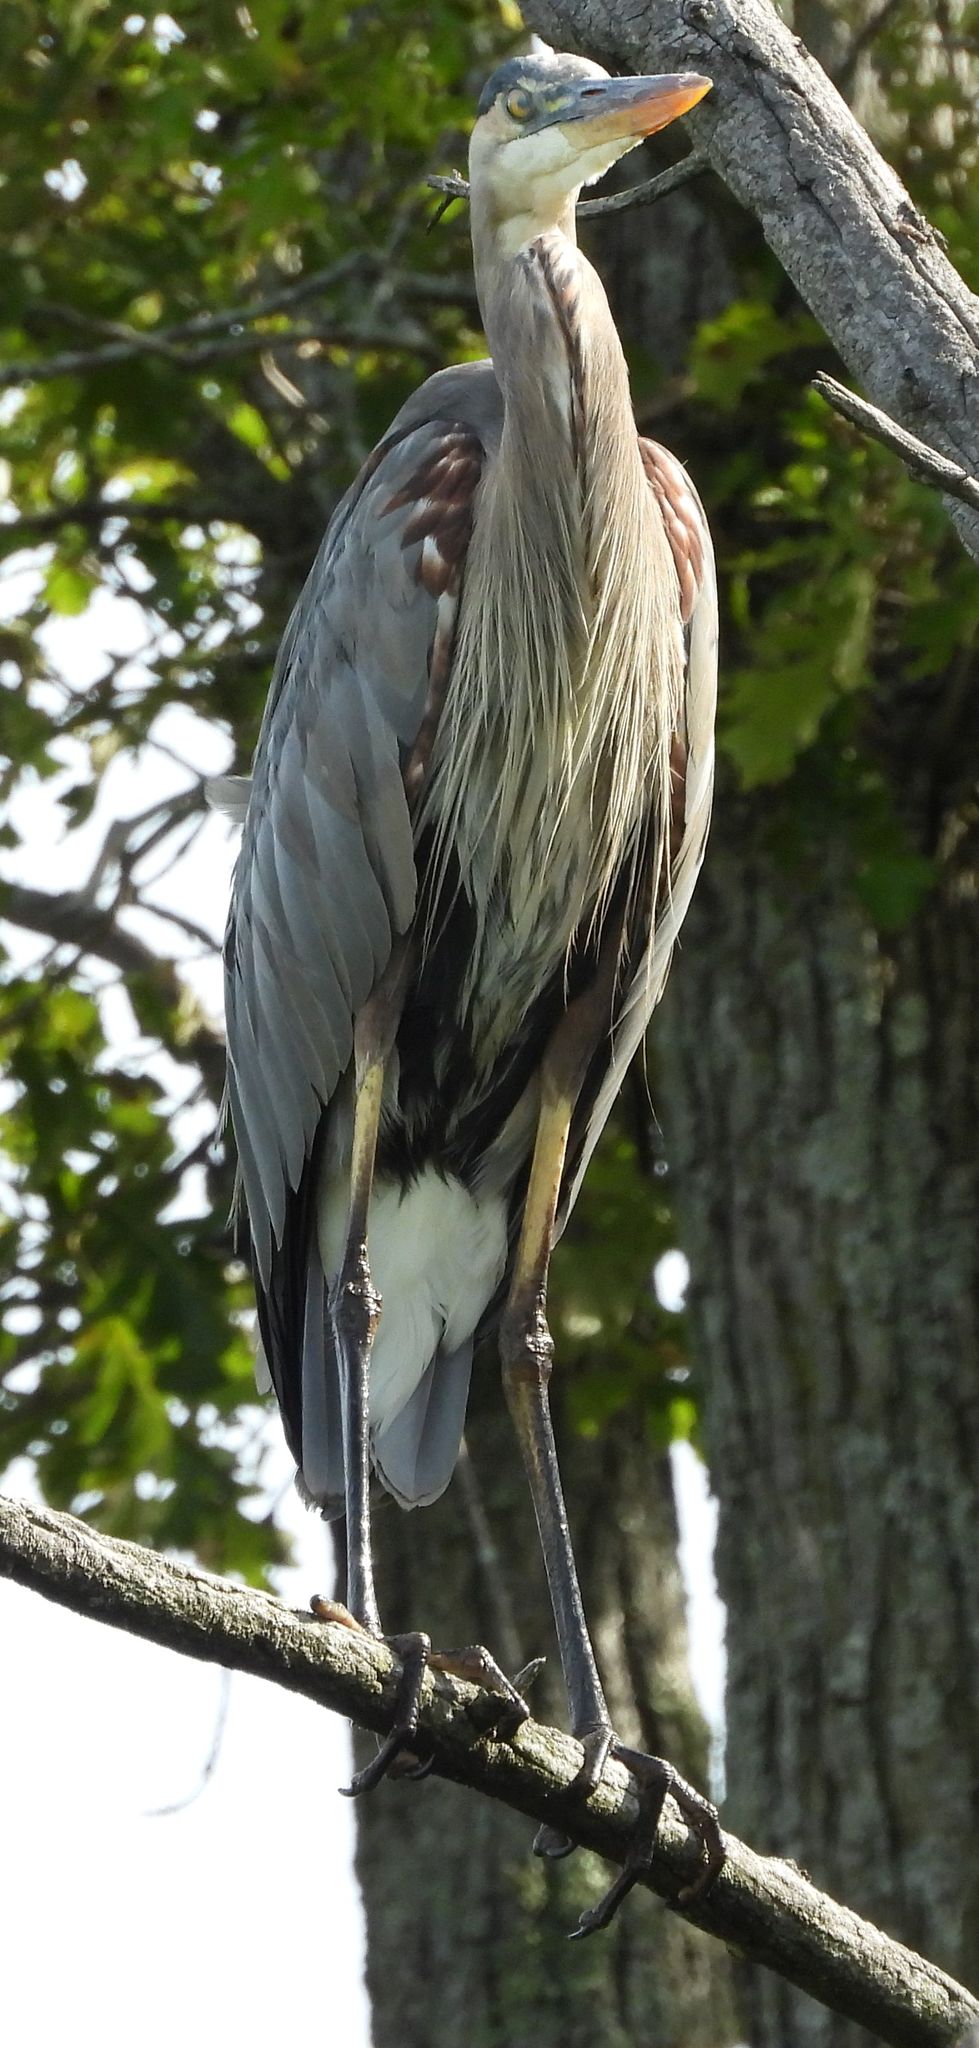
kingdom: Animalia
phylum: Chordata
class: Aves
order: Pelecaniformes
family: Ardeidae
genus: Ardea
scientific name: Ardea herodias
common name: Great blue heron
